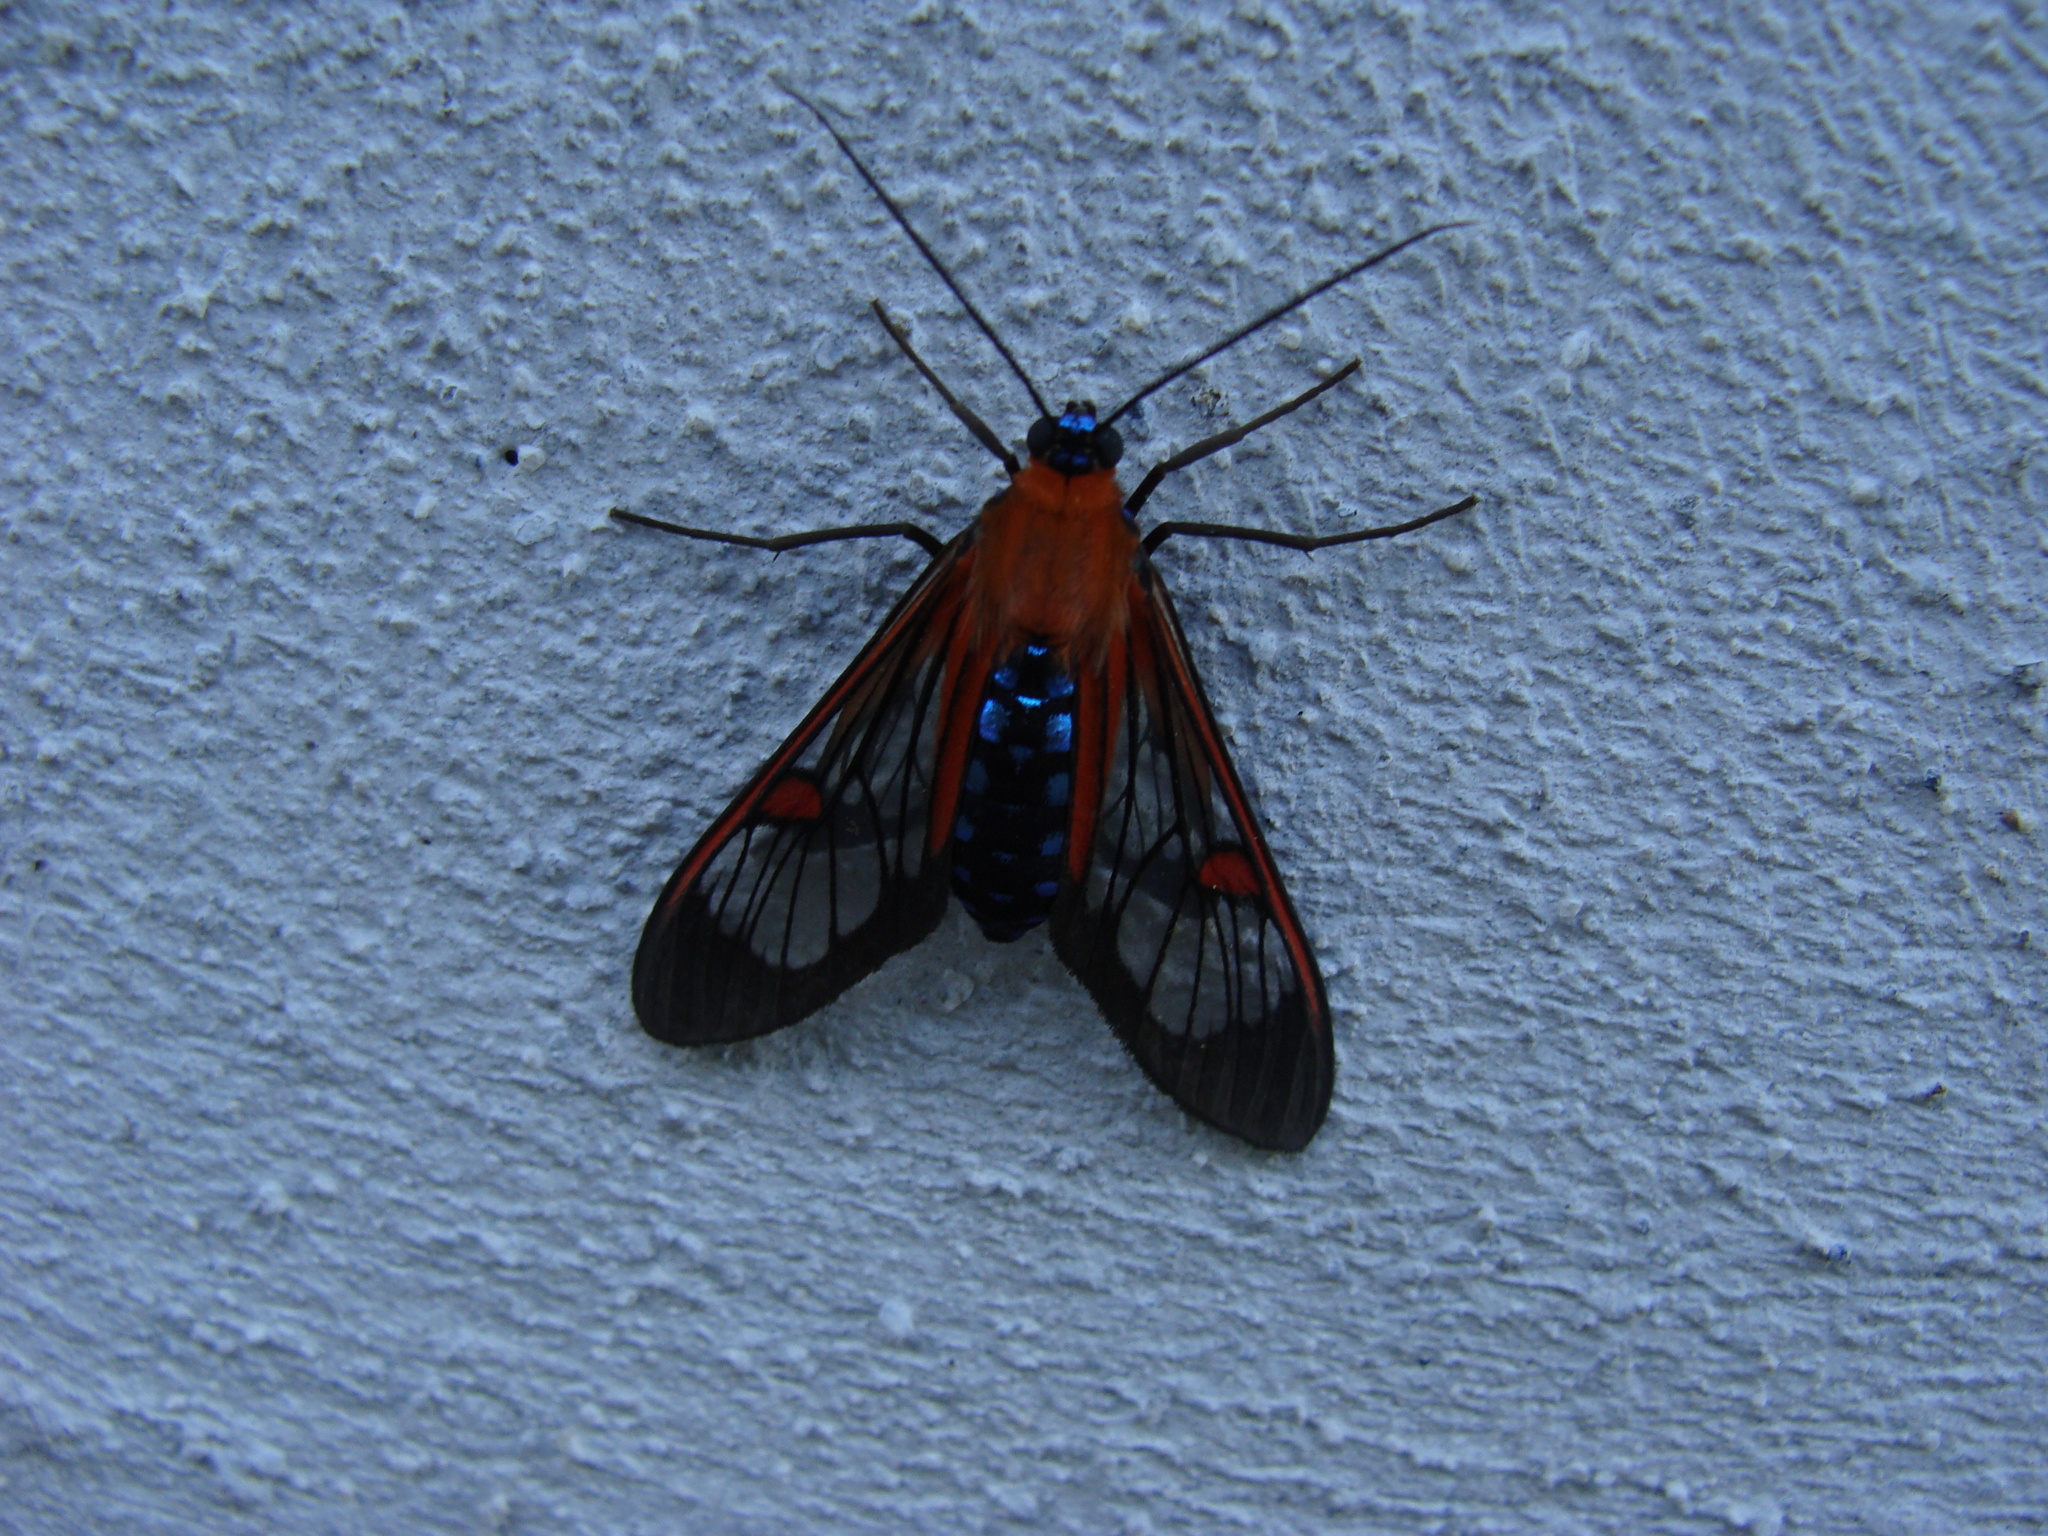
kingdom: Animalia
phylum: Arthropoda
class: Insecta
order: Lepidoptera
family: Erebidae
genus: Lepidoneiva
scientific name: Lepidoneiva teuthras
